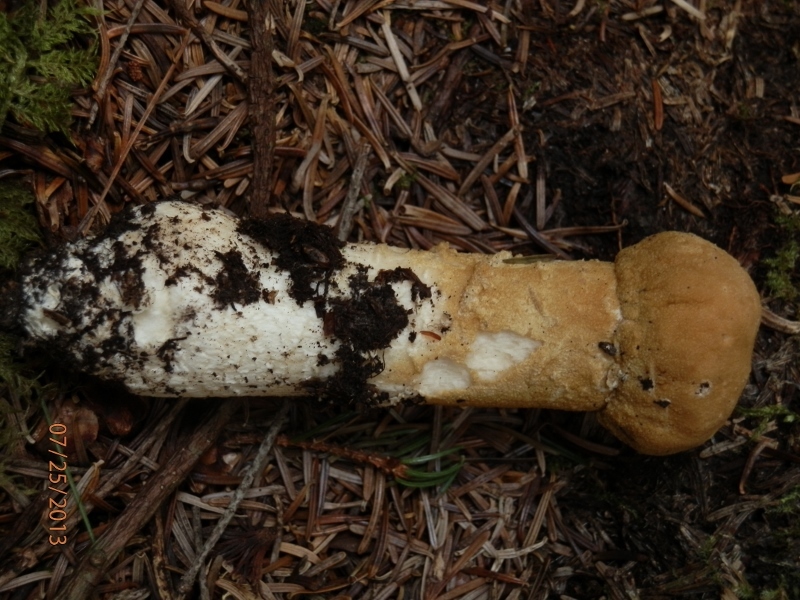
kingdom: Fungi
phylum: Ascomycota
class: Sordariomycetes
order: Hypocreales
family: Hypocreaceae
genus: Hypomyces
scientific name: Hypomyces chrysospermus
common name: Bolete mould
